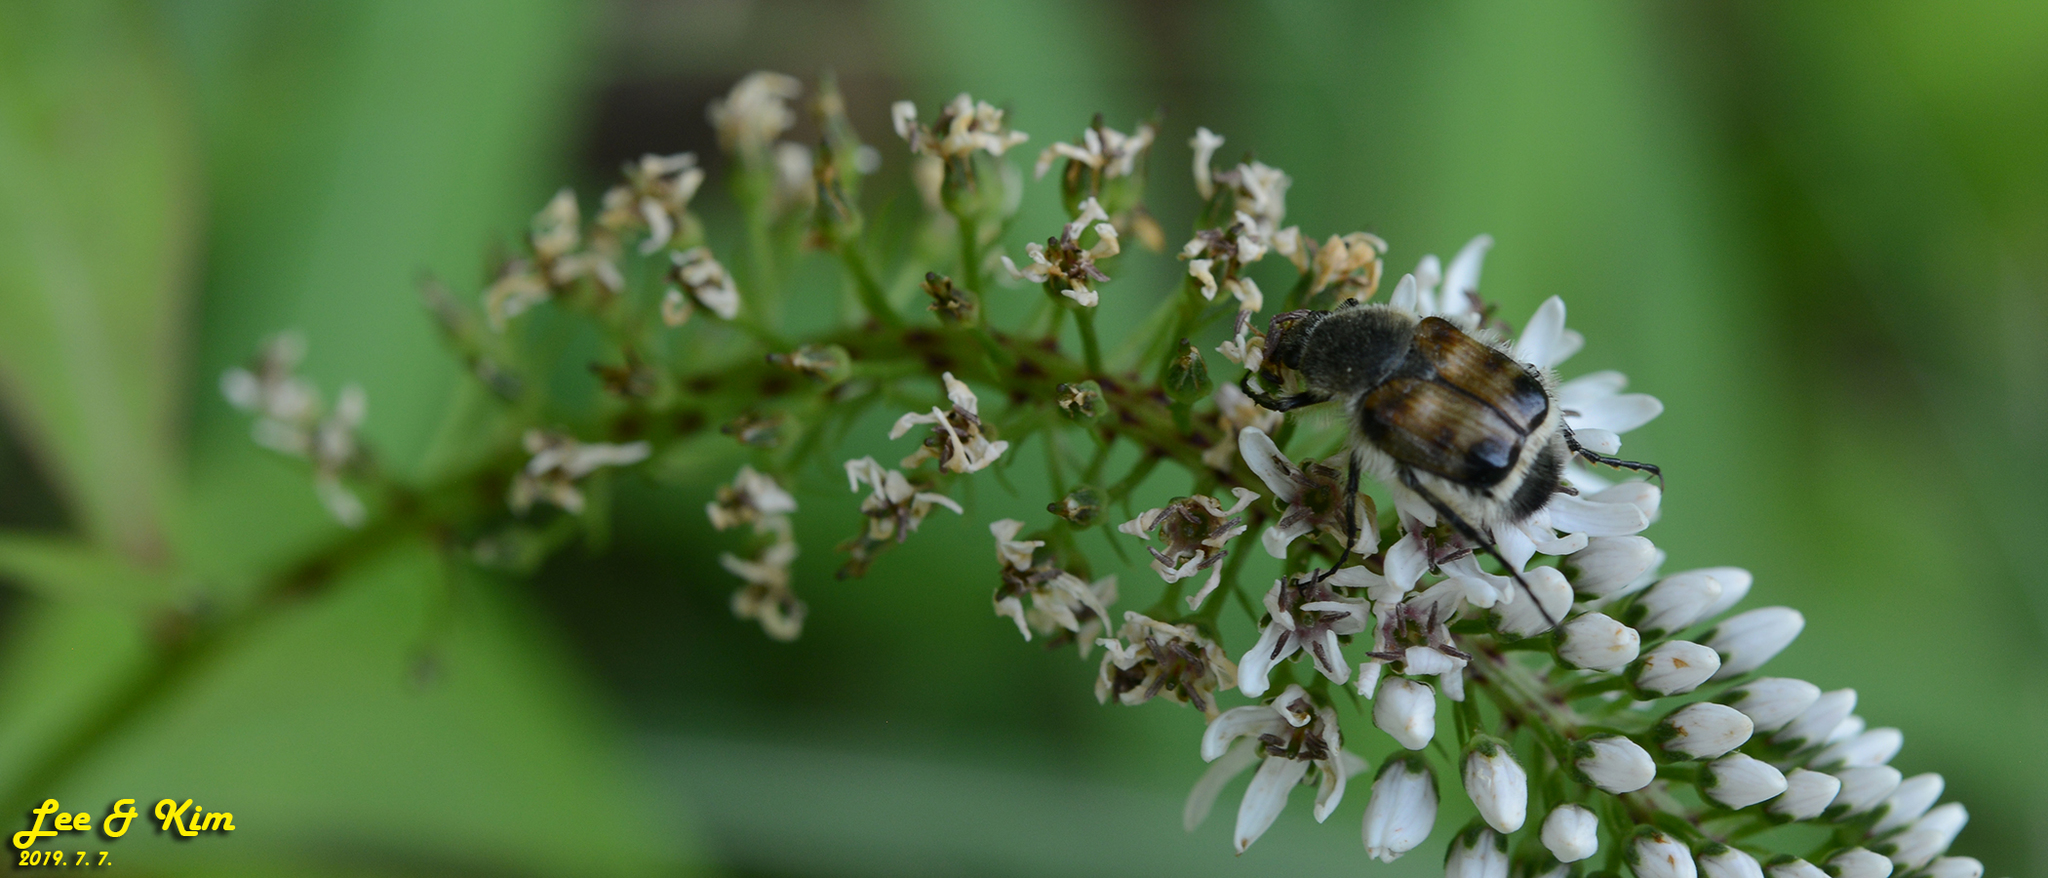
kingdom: Animalia
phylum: Arthropoda
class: Insecta
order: Coleoptera
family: Scarabaeidae
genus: Lasiotrichius
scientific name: Lasiotrichius succinctus
